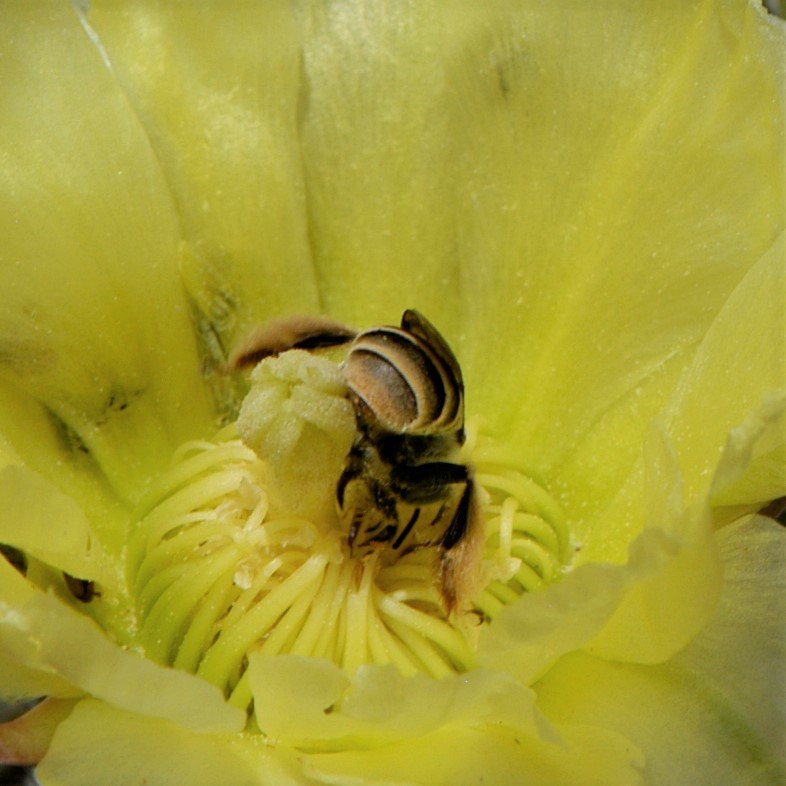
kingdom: Animalia
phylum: Arthropoda
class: Insecta
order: Hymenoptera
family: Apidae
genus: Diadasia
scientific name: Diadasia
